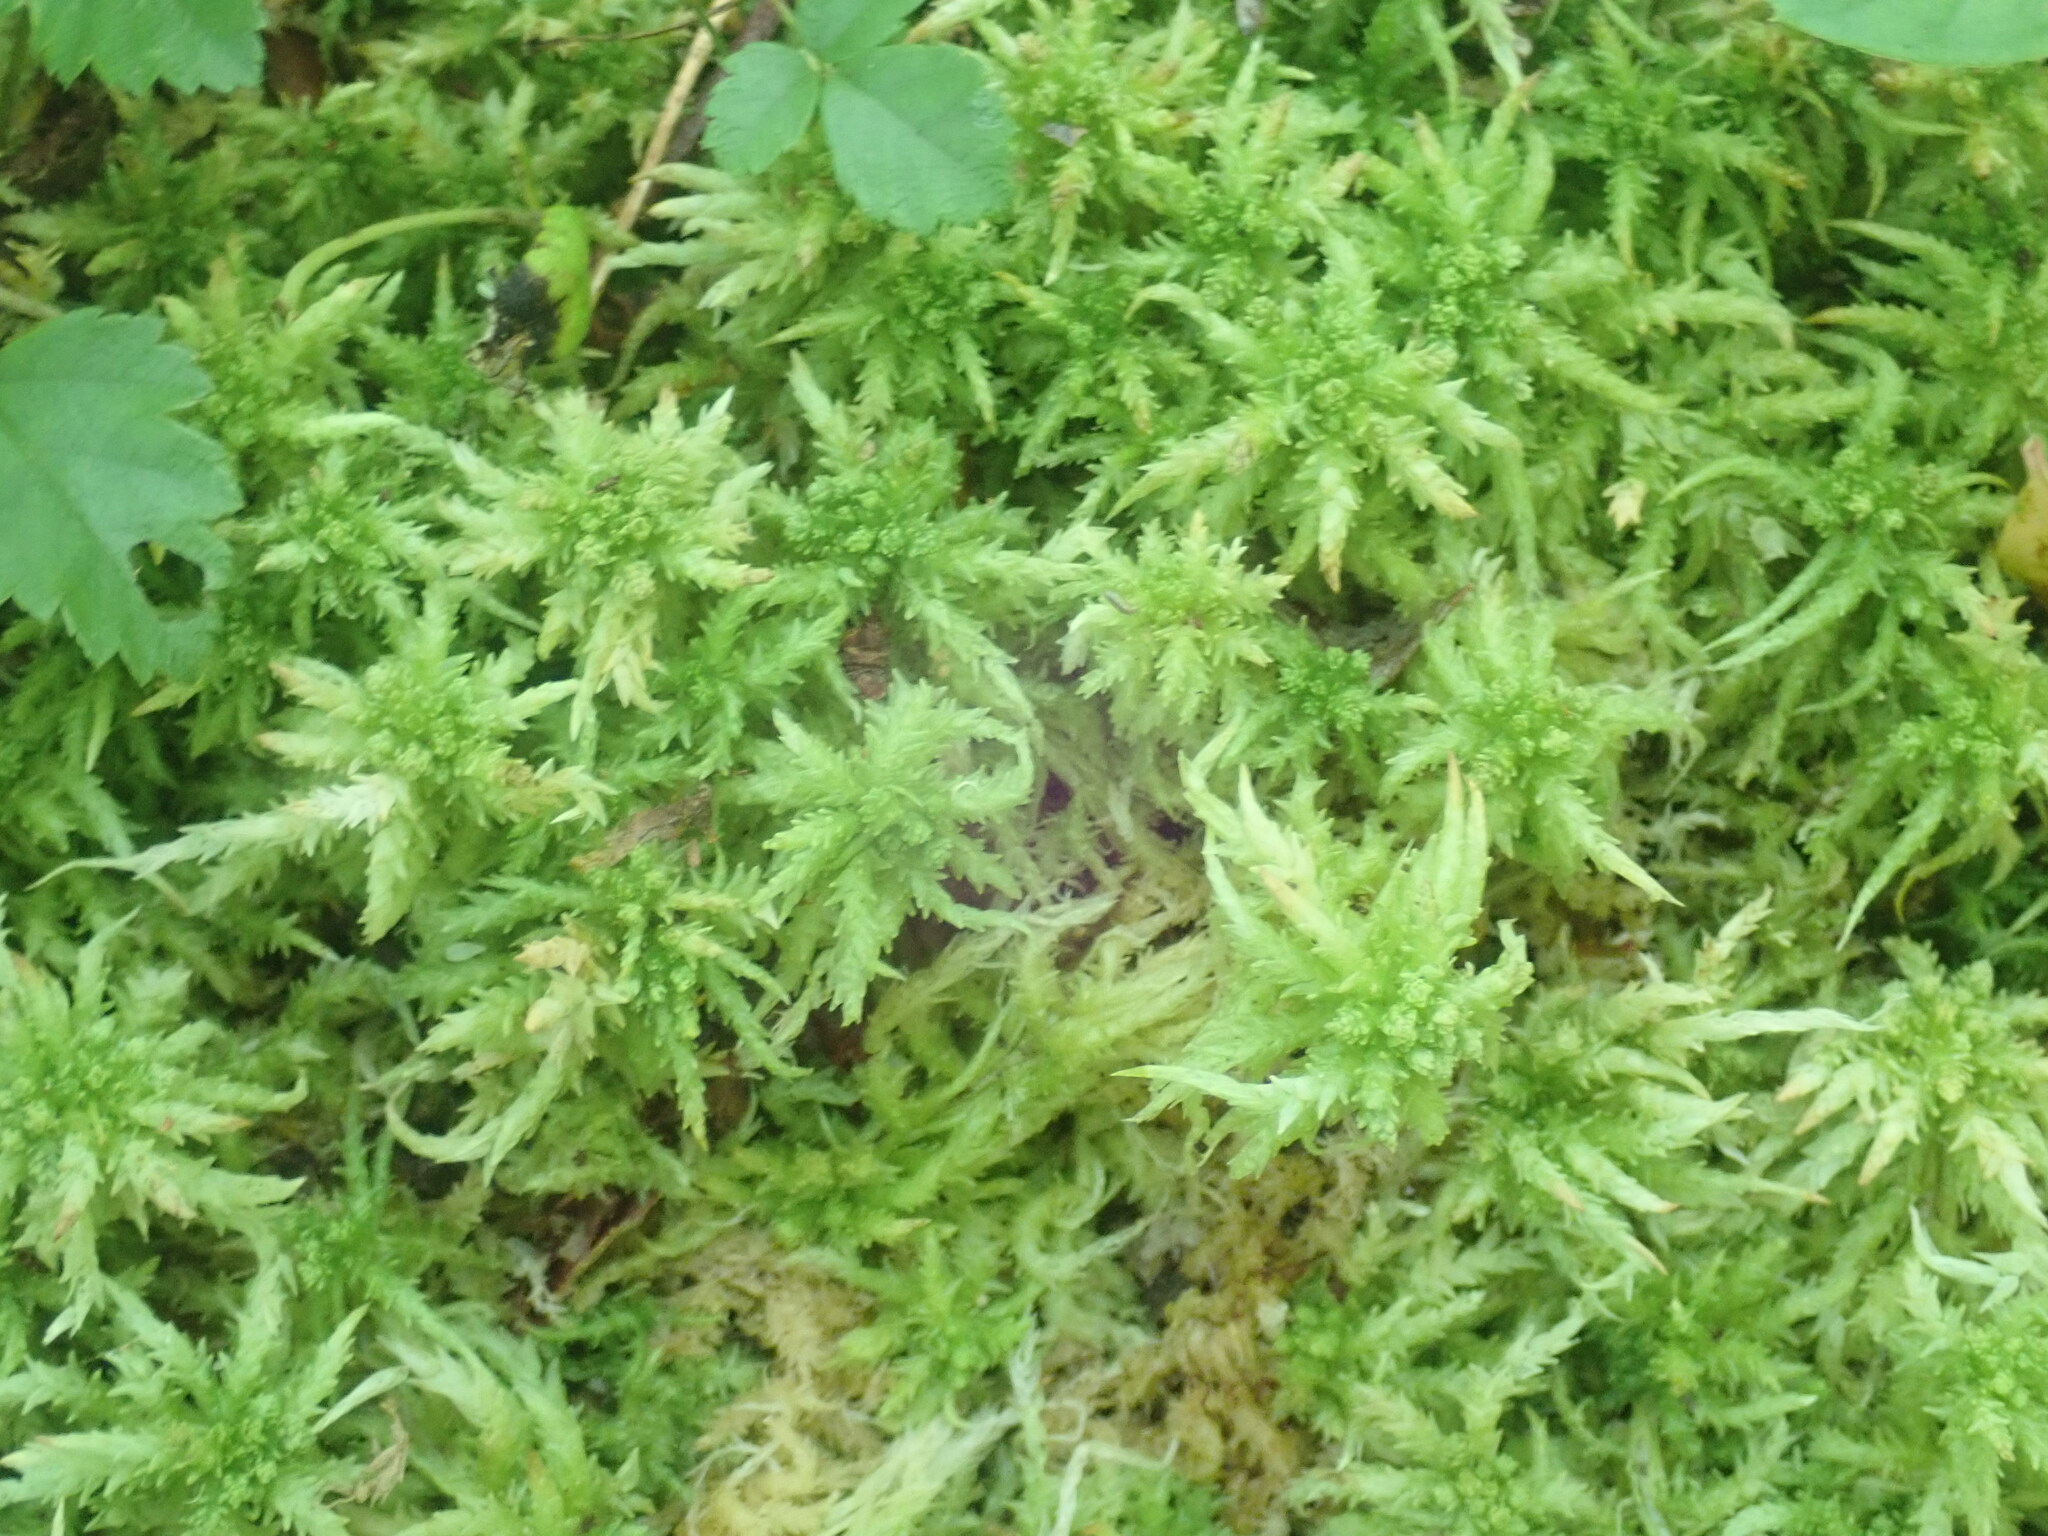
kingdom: Plantae
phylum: Bryophyta
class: Sphagnopsida
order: Sphagnales
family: Sphagnaceae
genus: Sphagnum
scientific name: Sphagnum
